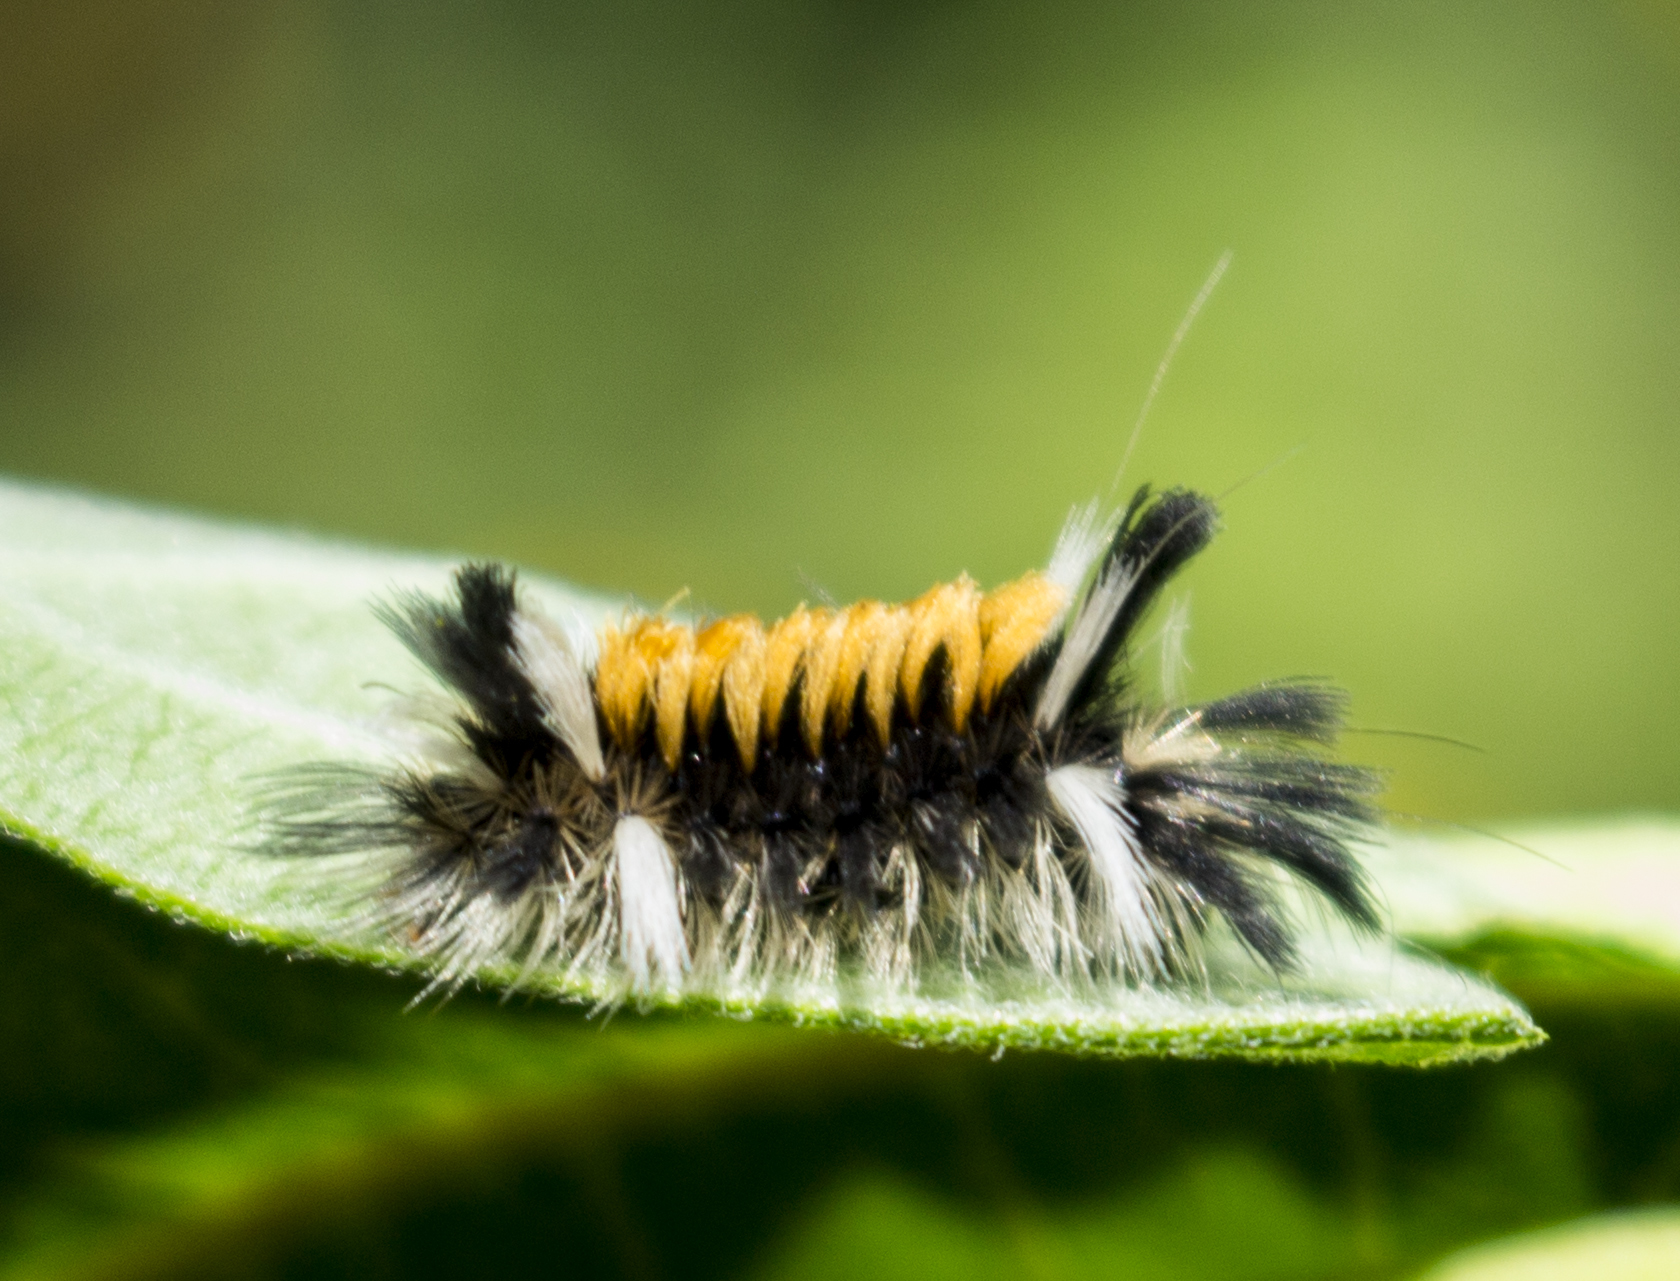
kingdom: Animalia
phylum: Arthropoda
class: Insecta
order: Lepidoptera
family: Erebidae
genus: Euchaetes
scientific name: Euchaetes egle
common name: Milkweed tussock moth
